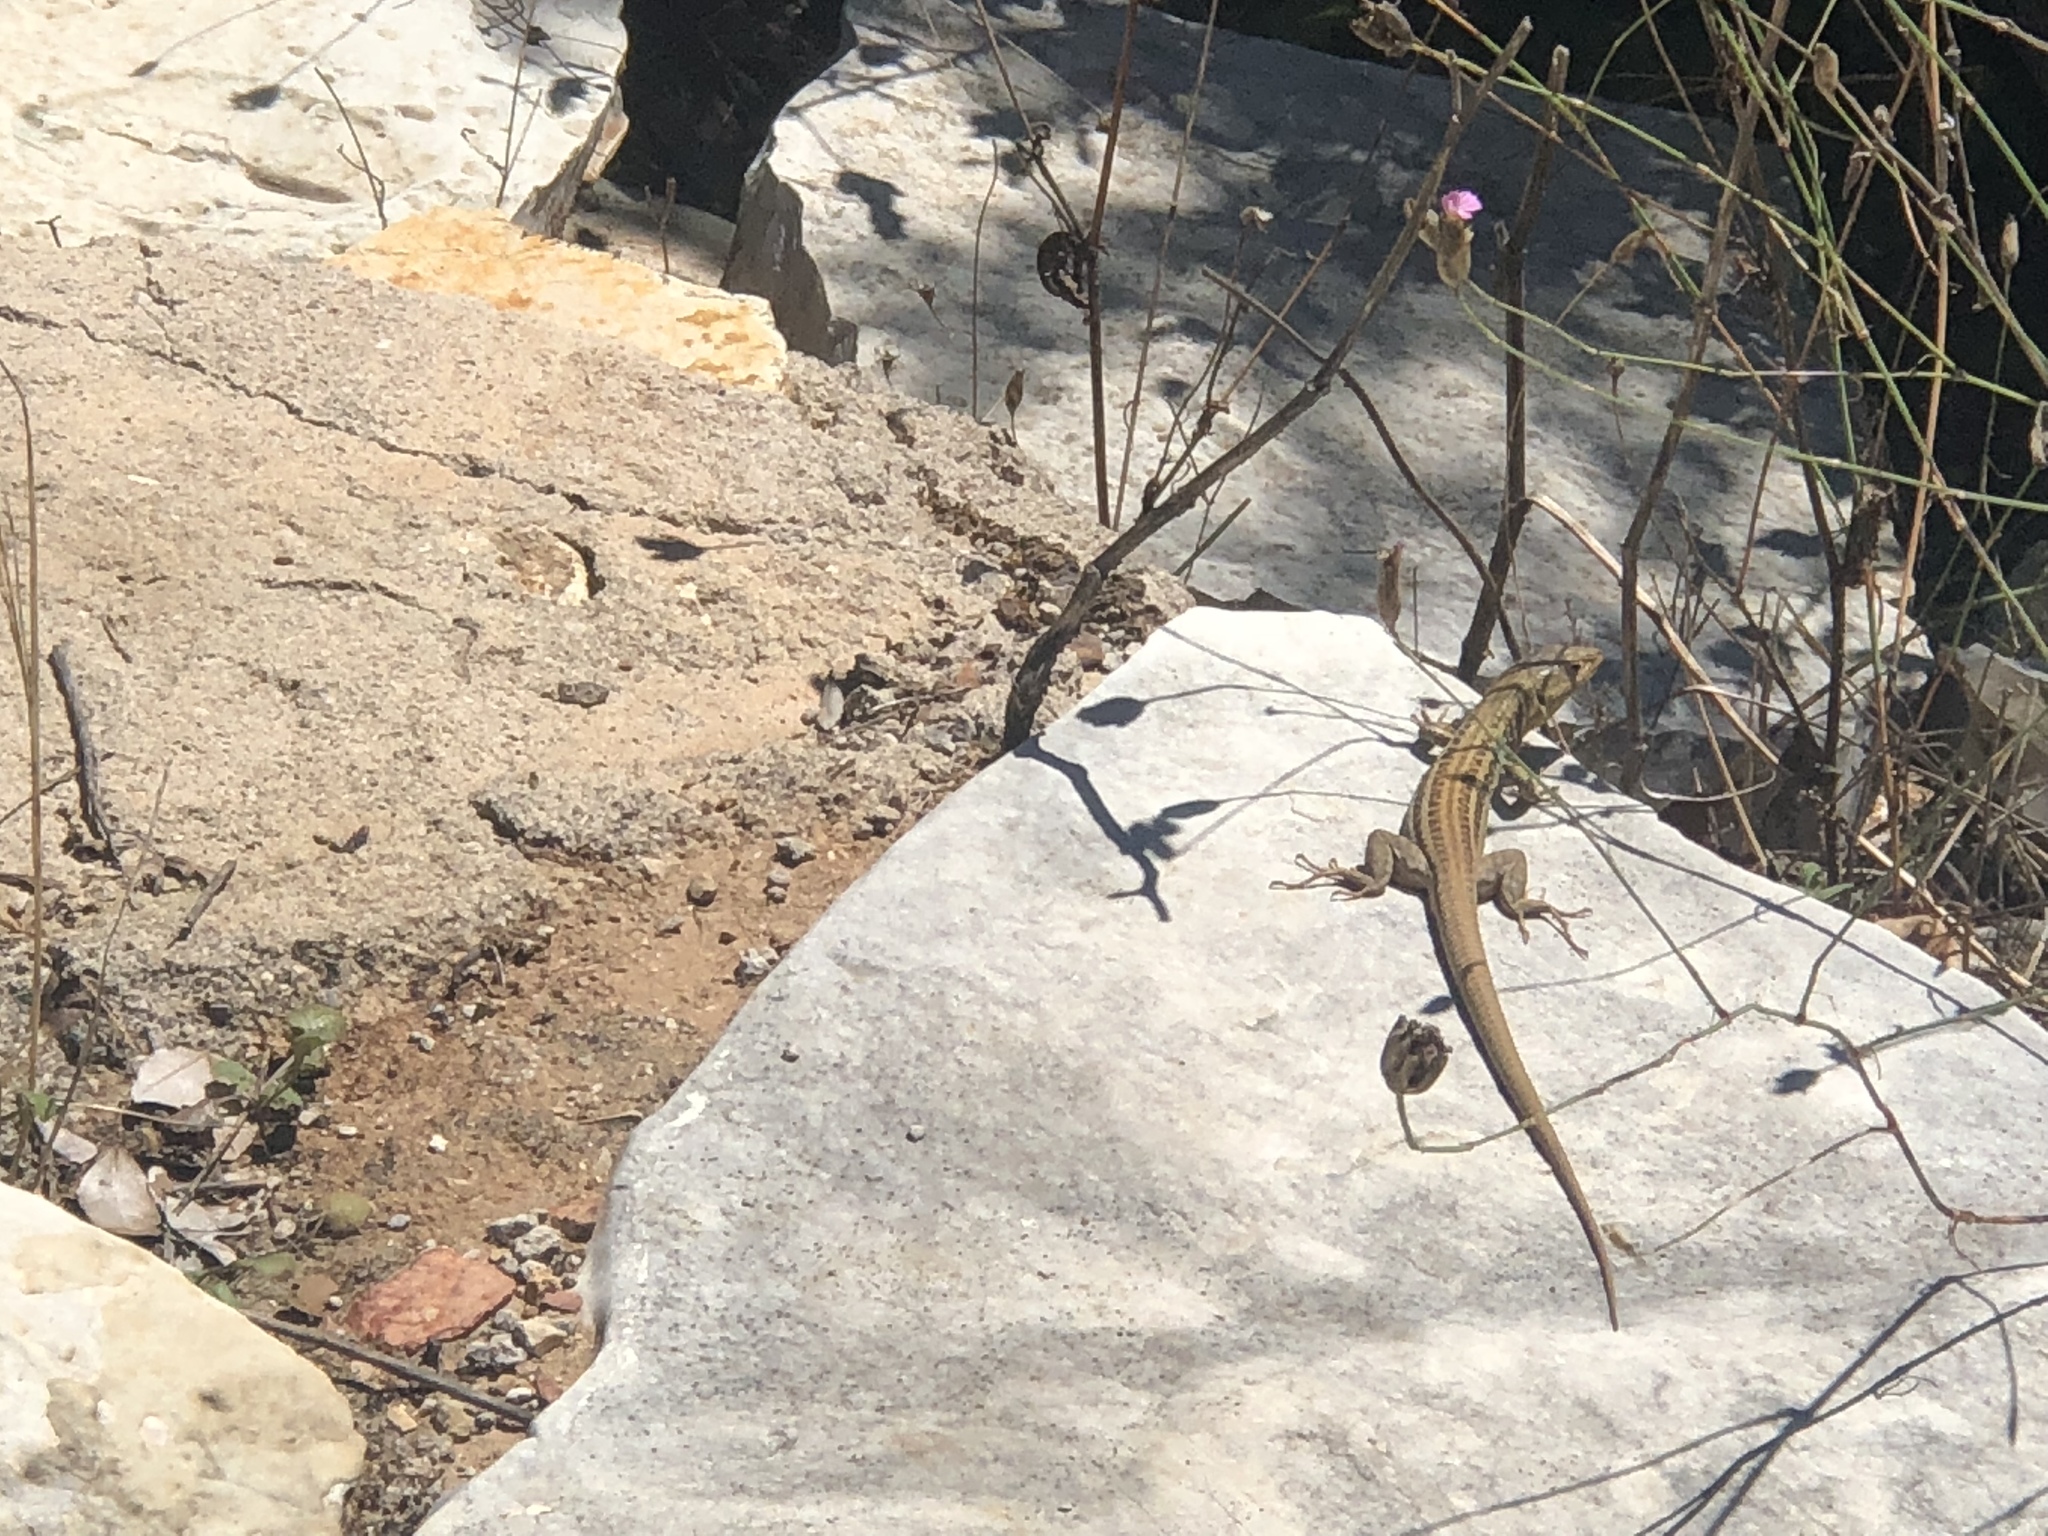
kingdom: Animalia
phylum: Chordata
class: Squamata
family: Lacertidae
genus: Podarcis
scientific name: Podarcis peloponnesiacus
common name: Peloponnese wall lizard
